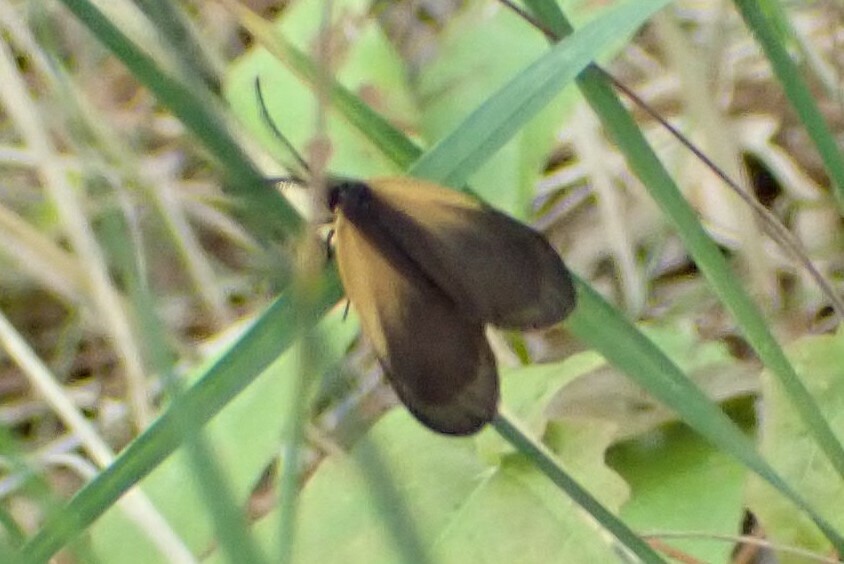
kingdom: Animalia
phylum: Arthropoda
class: Insecta
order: Lepidoptera
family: Zygaenidae
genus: Malthaca
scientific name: Malthaca dimidiata
